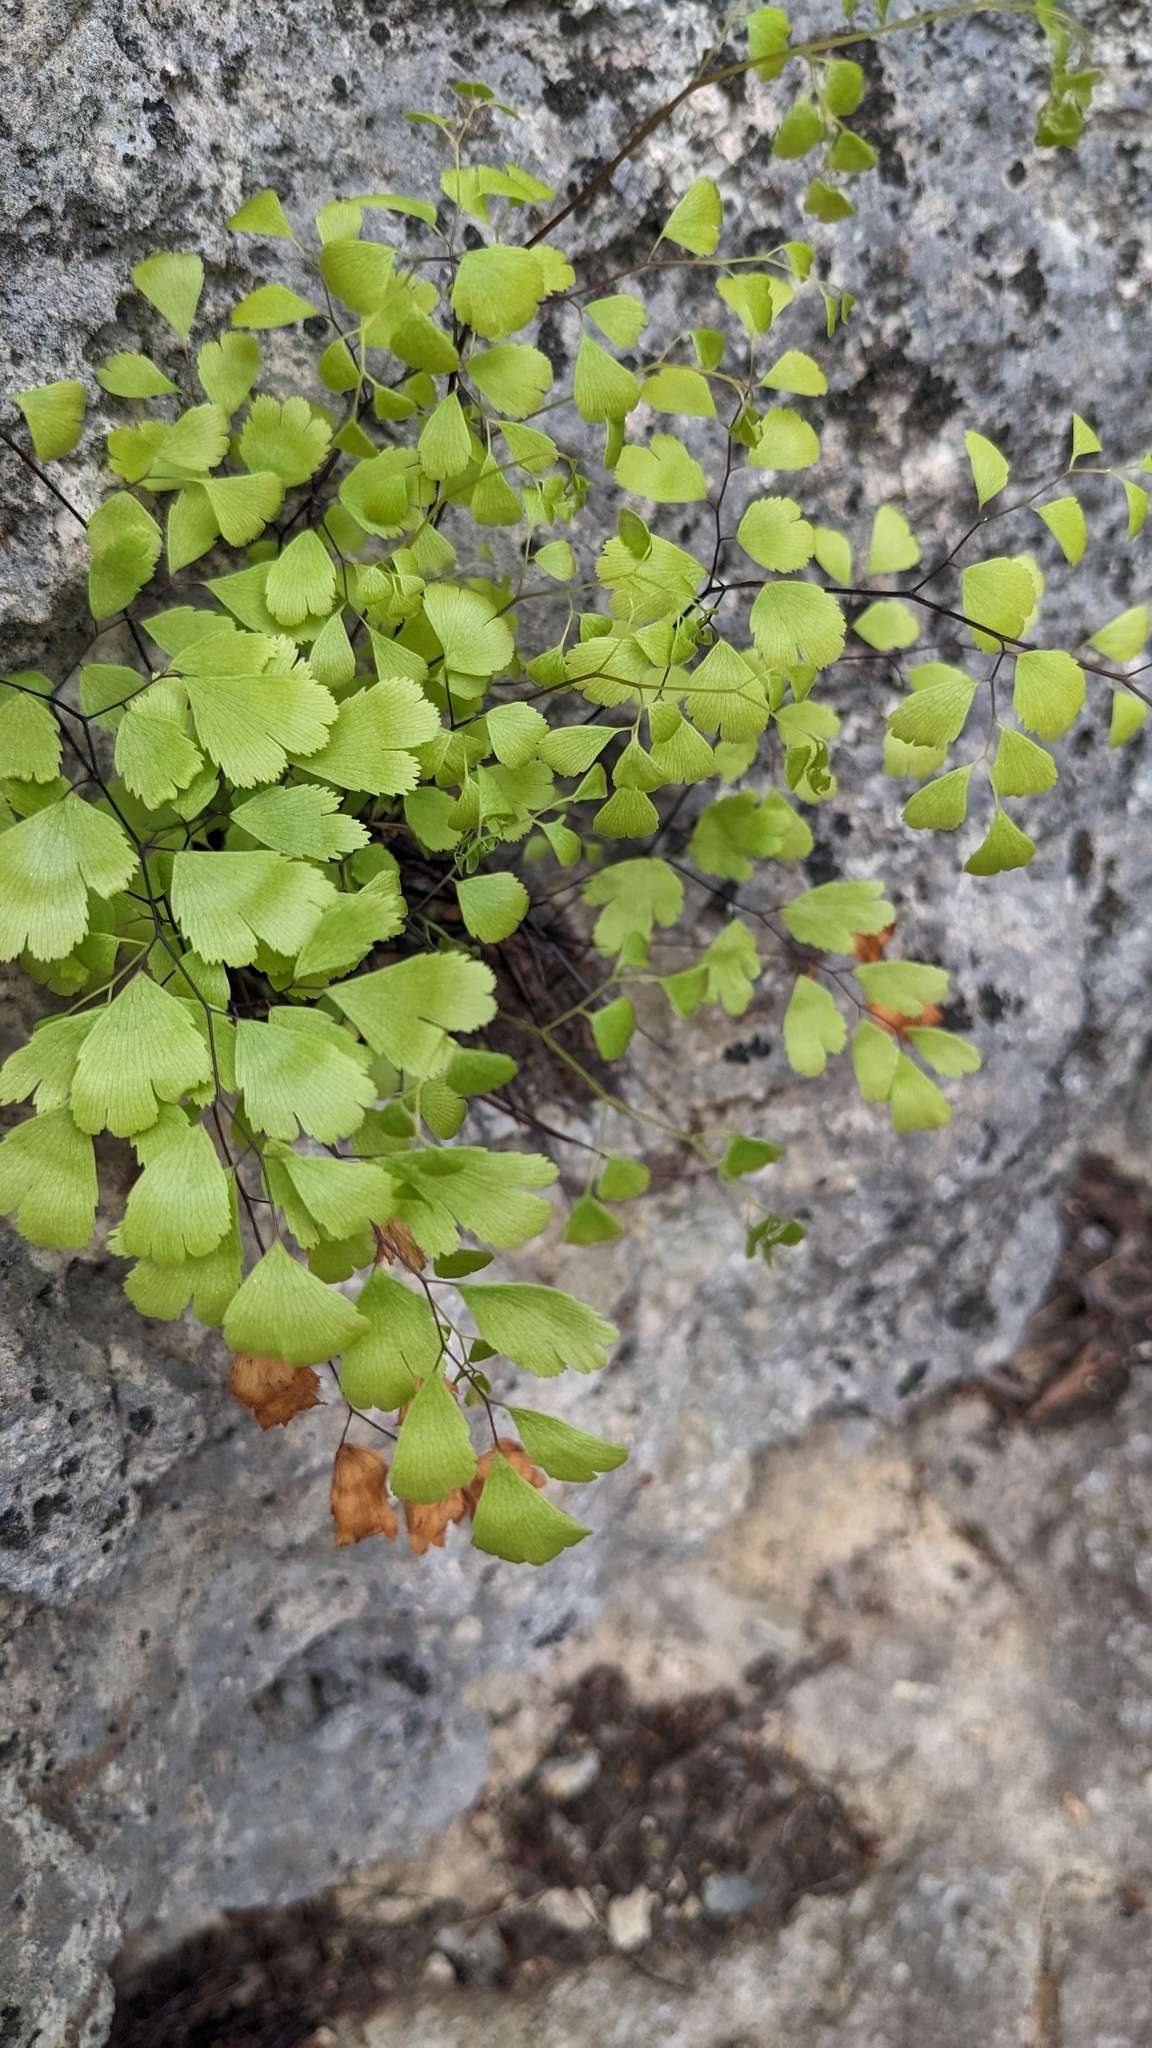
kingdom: Plantae
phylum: Tracheophyta
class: Polypodiopsida
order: Polypodiales
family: Pteridaceae
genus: Adiantum
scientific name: Adiantum capillus-veneris
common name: Maidenhair fern
